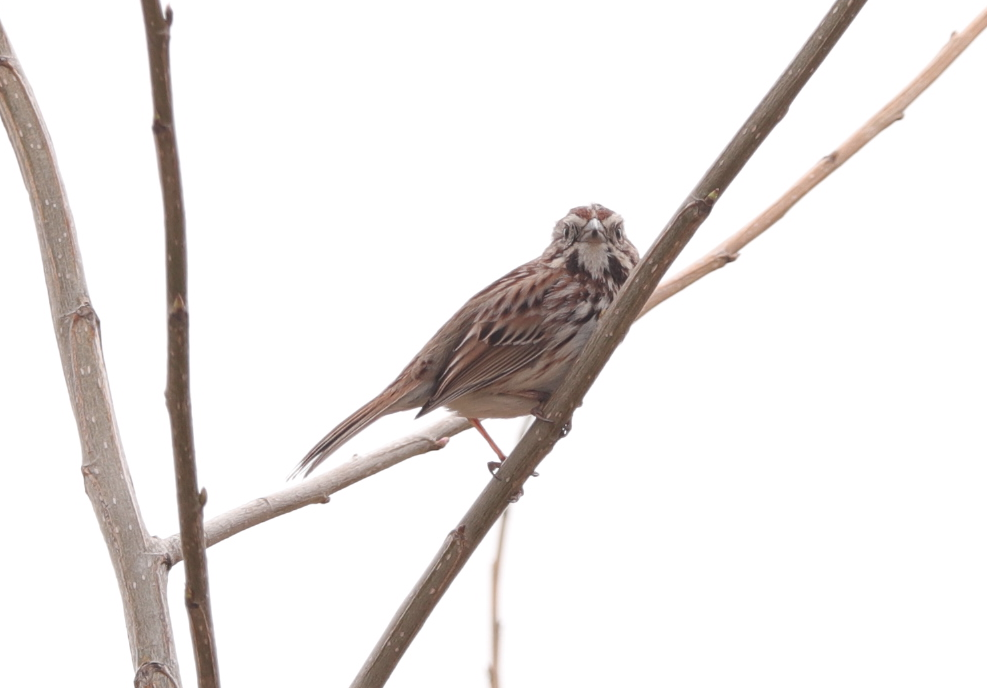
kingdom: Animalia
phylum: Chordata
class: Aves
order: Passeriformes
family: Passerellidae
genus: Melospiza
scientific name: Melospiza melodia
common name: Song sparrow
